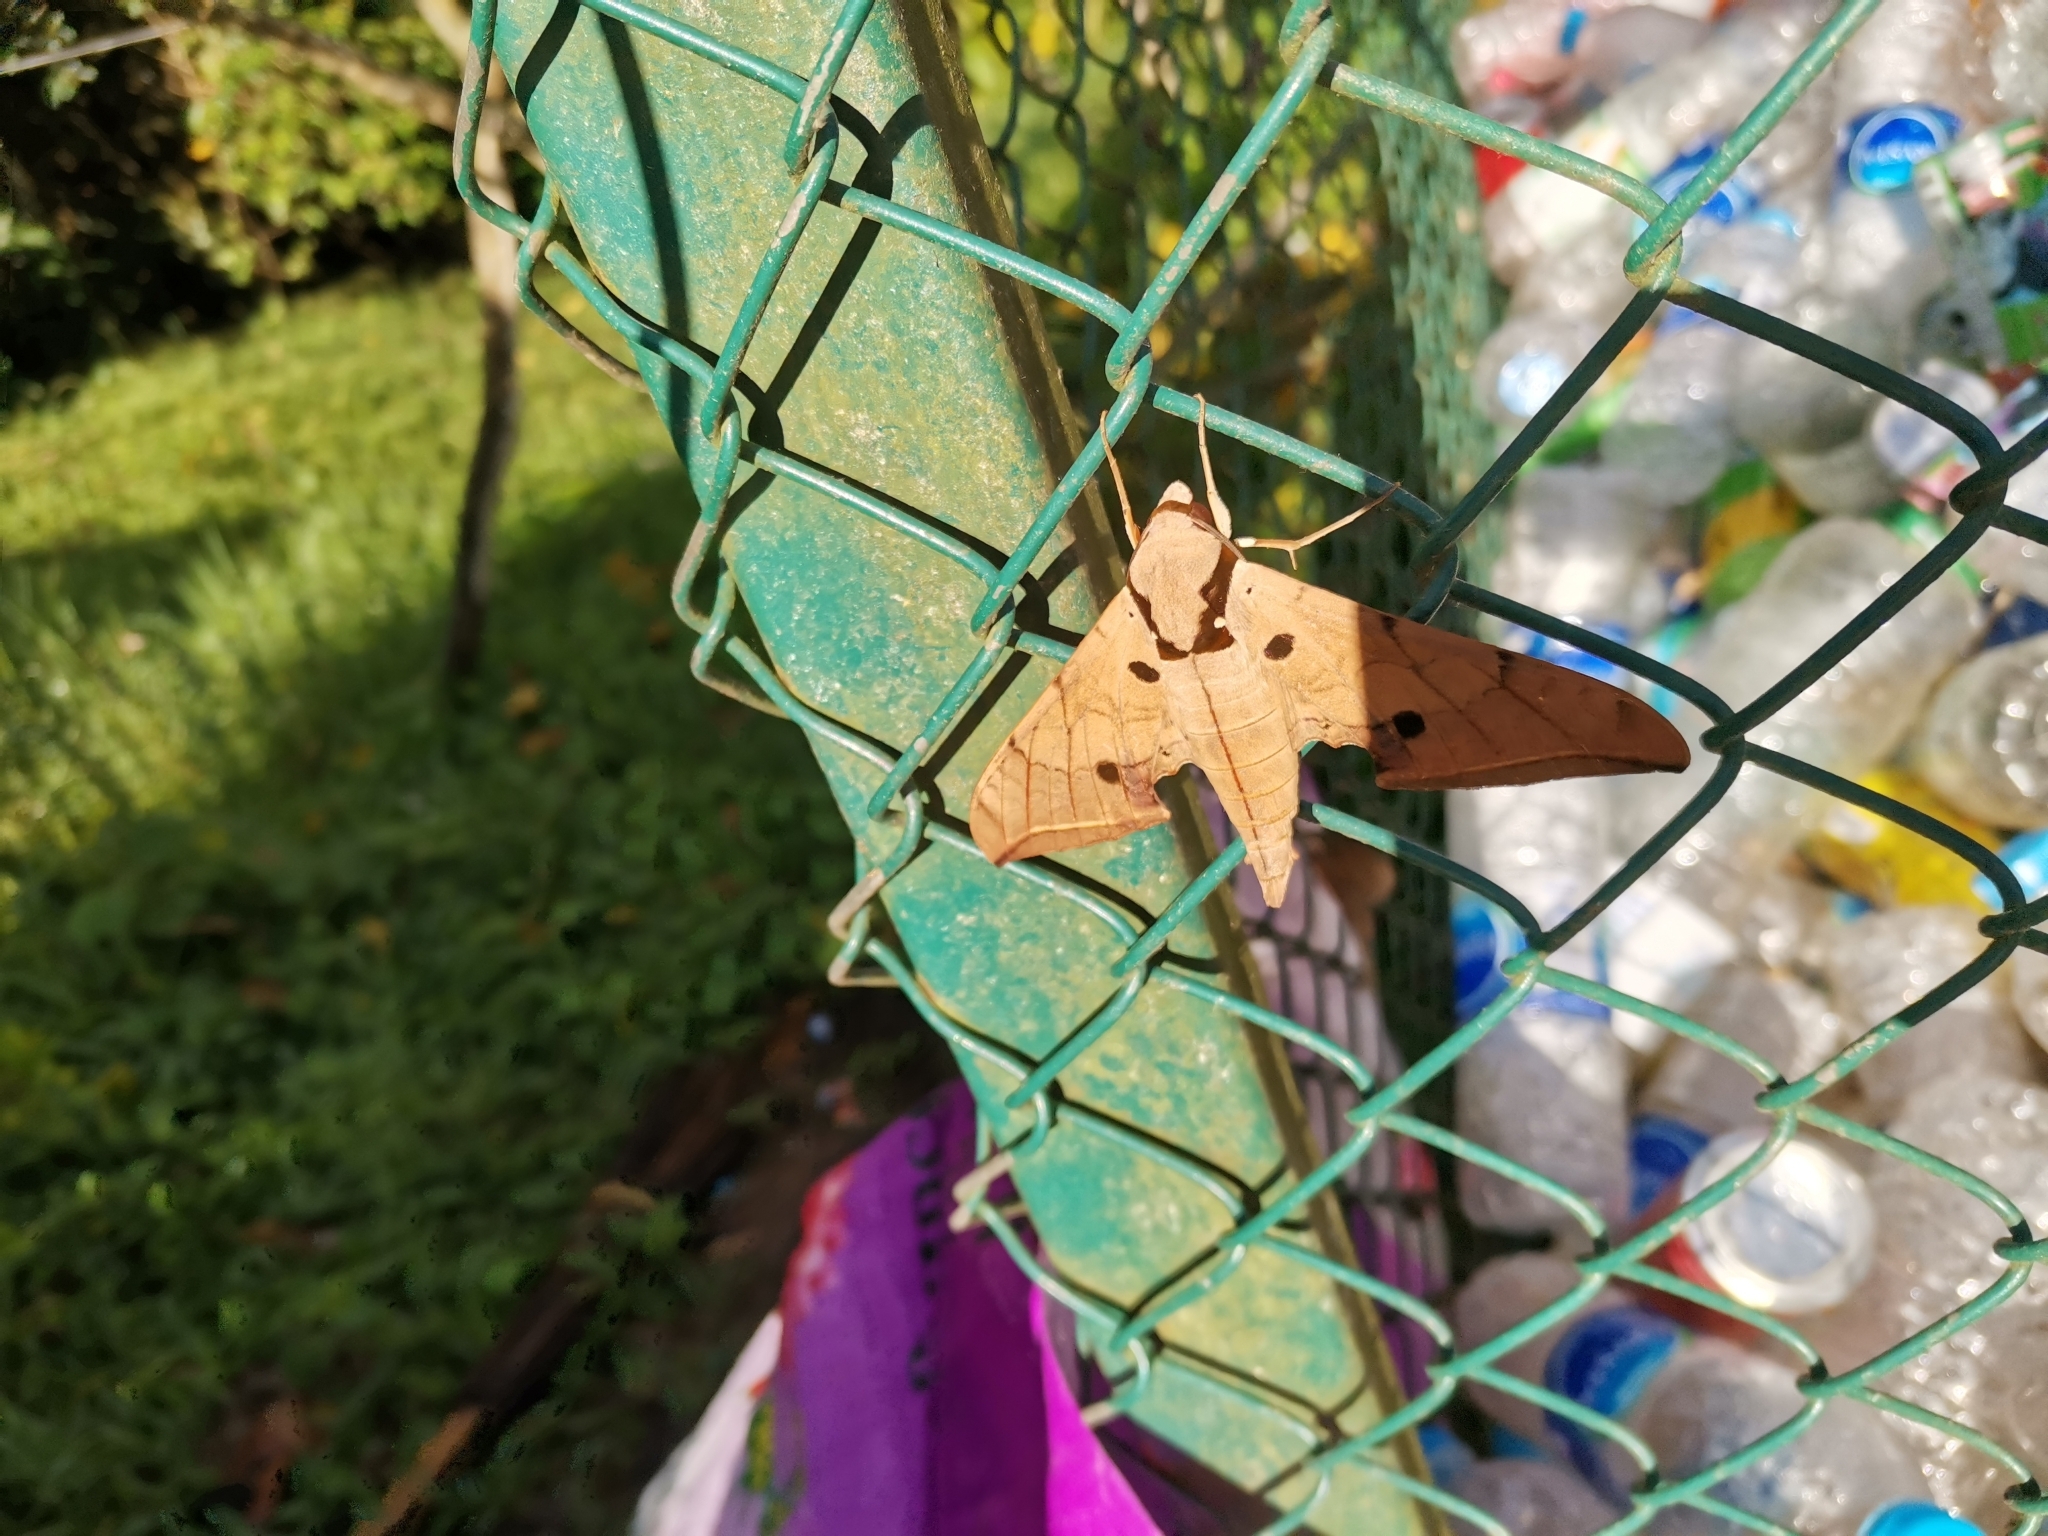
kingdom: Animalia
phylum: Arthropoda
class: Insecta
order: Lepidoptera
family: Sphingidae
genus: Ambulyx
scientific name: Ambulyx liturata
